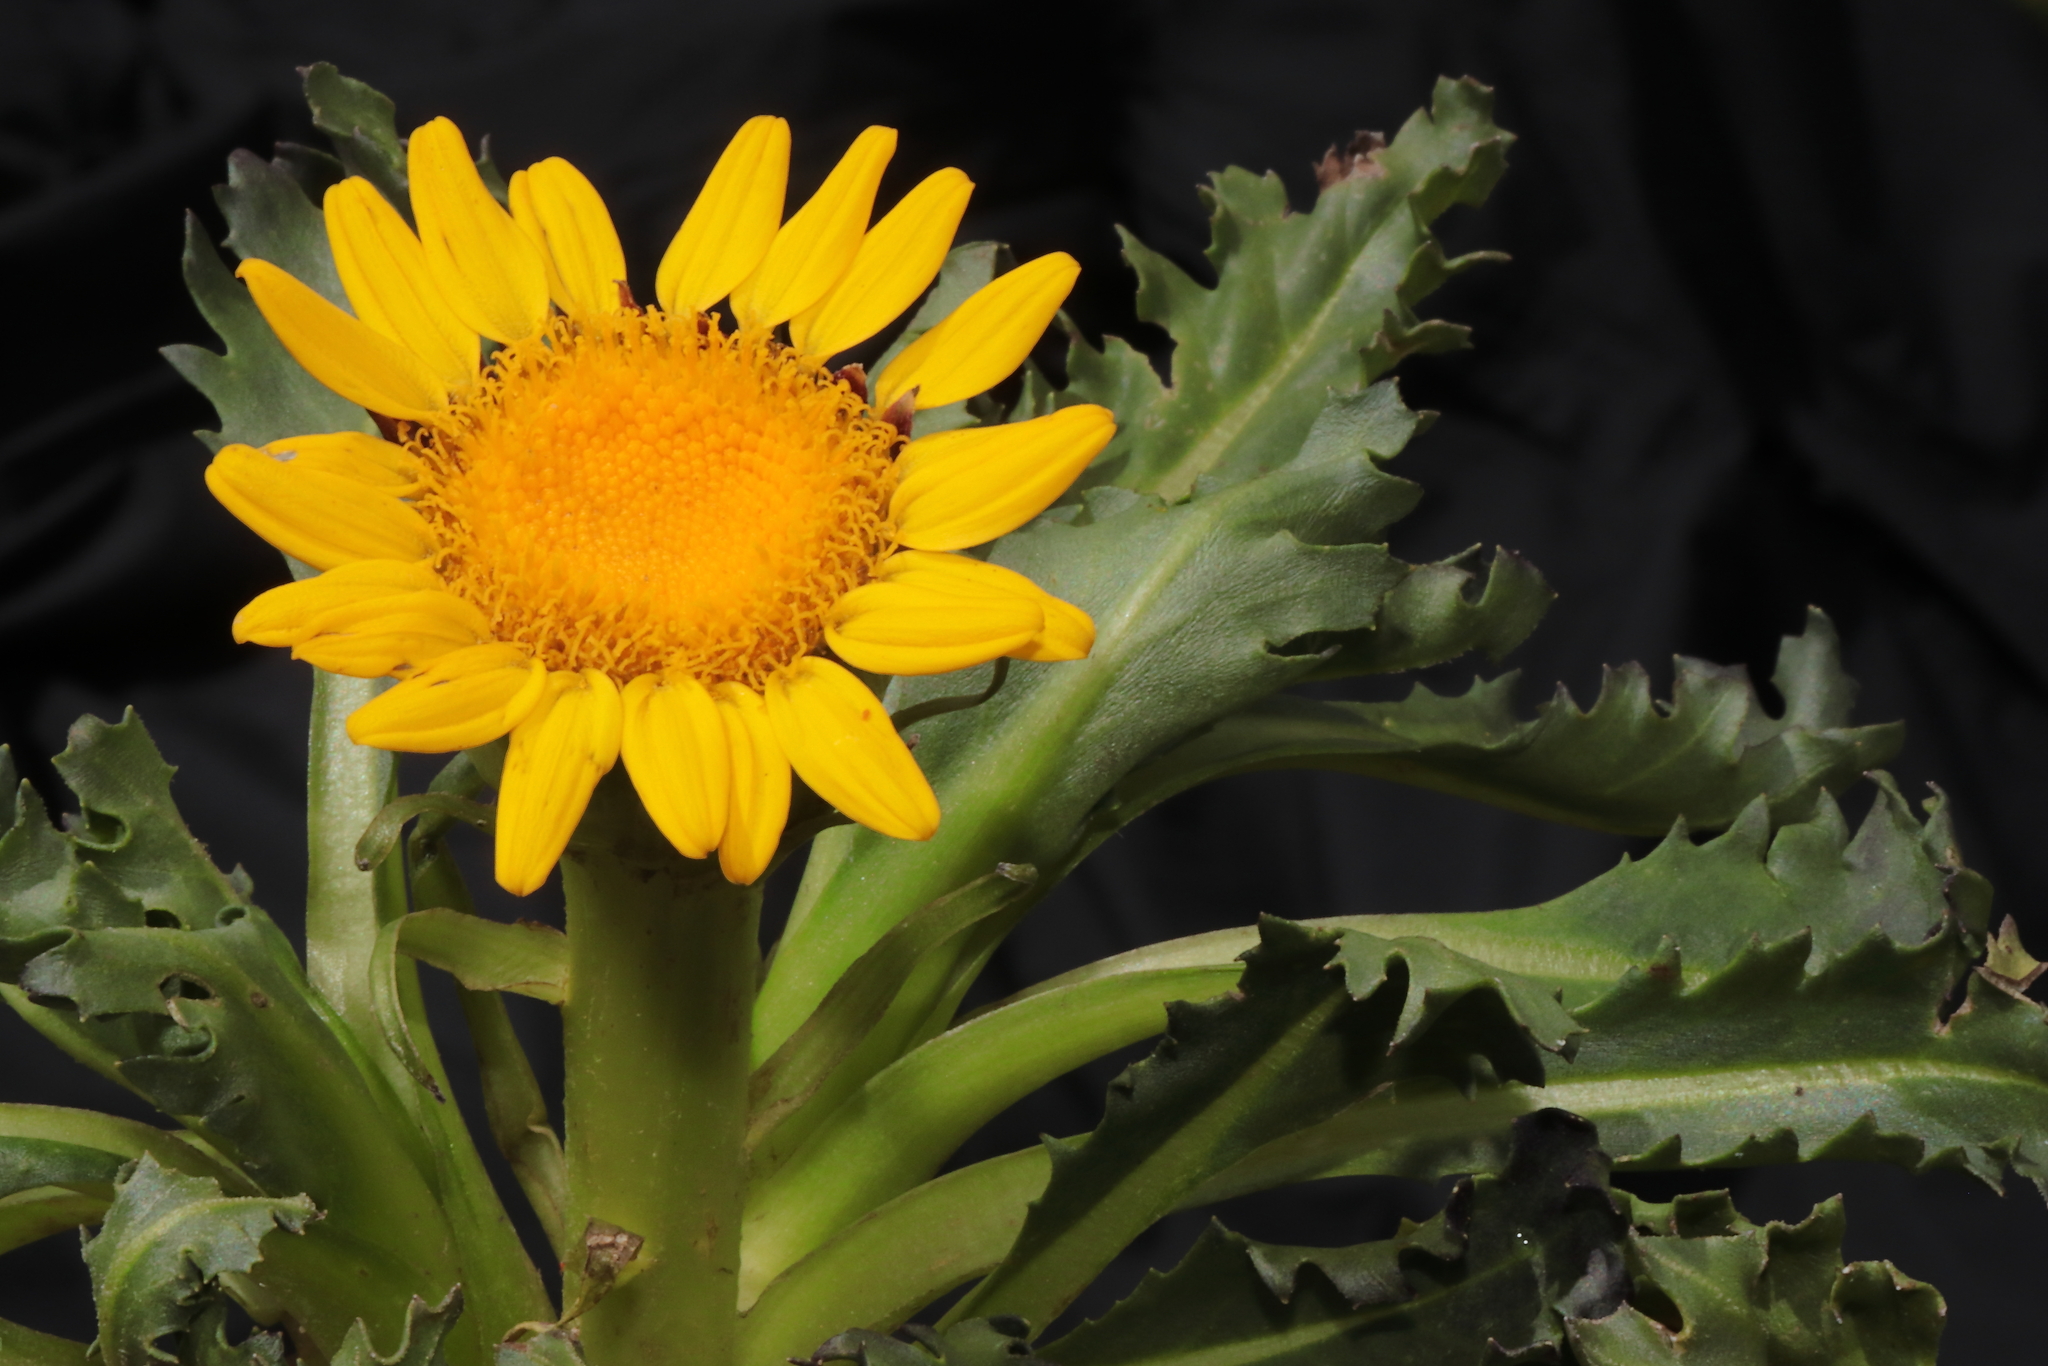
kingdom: Plantae
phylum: Tracheophyta
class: Magnoliopsida
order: Asterales
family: Asteraceae
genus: Senecio
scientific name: Senecio breviscapus
